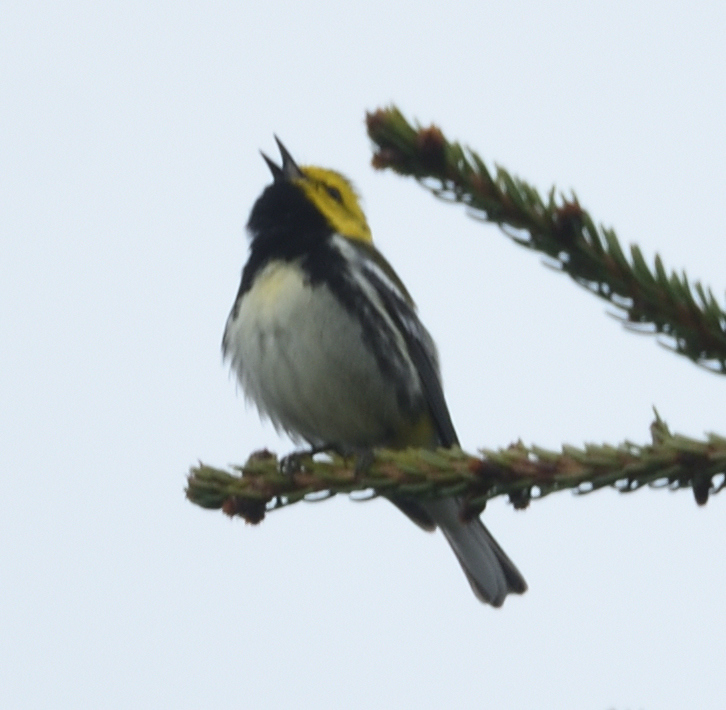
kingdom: Animalia
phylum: Chordata
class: Aves
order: Passeriformes
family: Parulidae
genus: Setophaga
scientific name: Setophaga virens
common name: Black-throated green warbler
